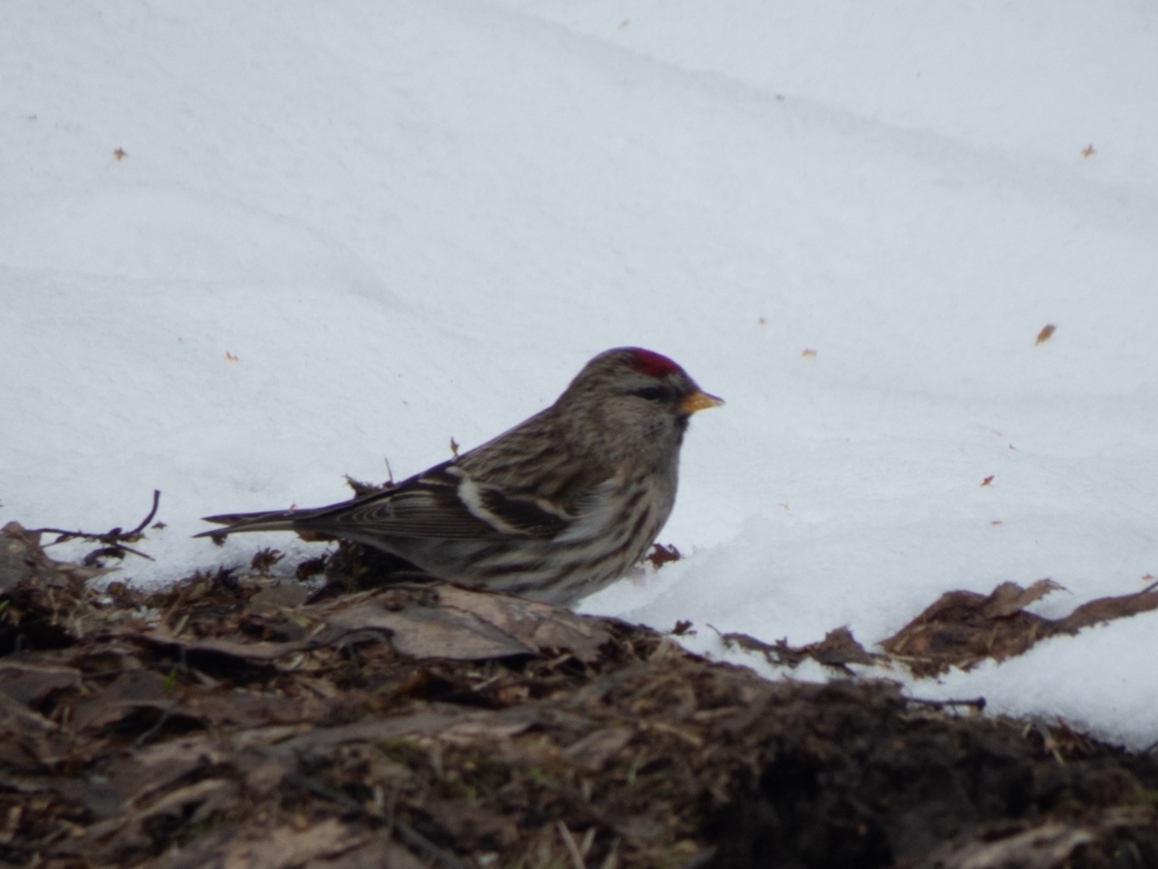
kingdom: Animalia
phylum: Chordata
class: Aves
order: Passeriformes
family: Fringillidae
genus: Acanthis
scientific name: Acanthis flammea
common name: Common redpoll
